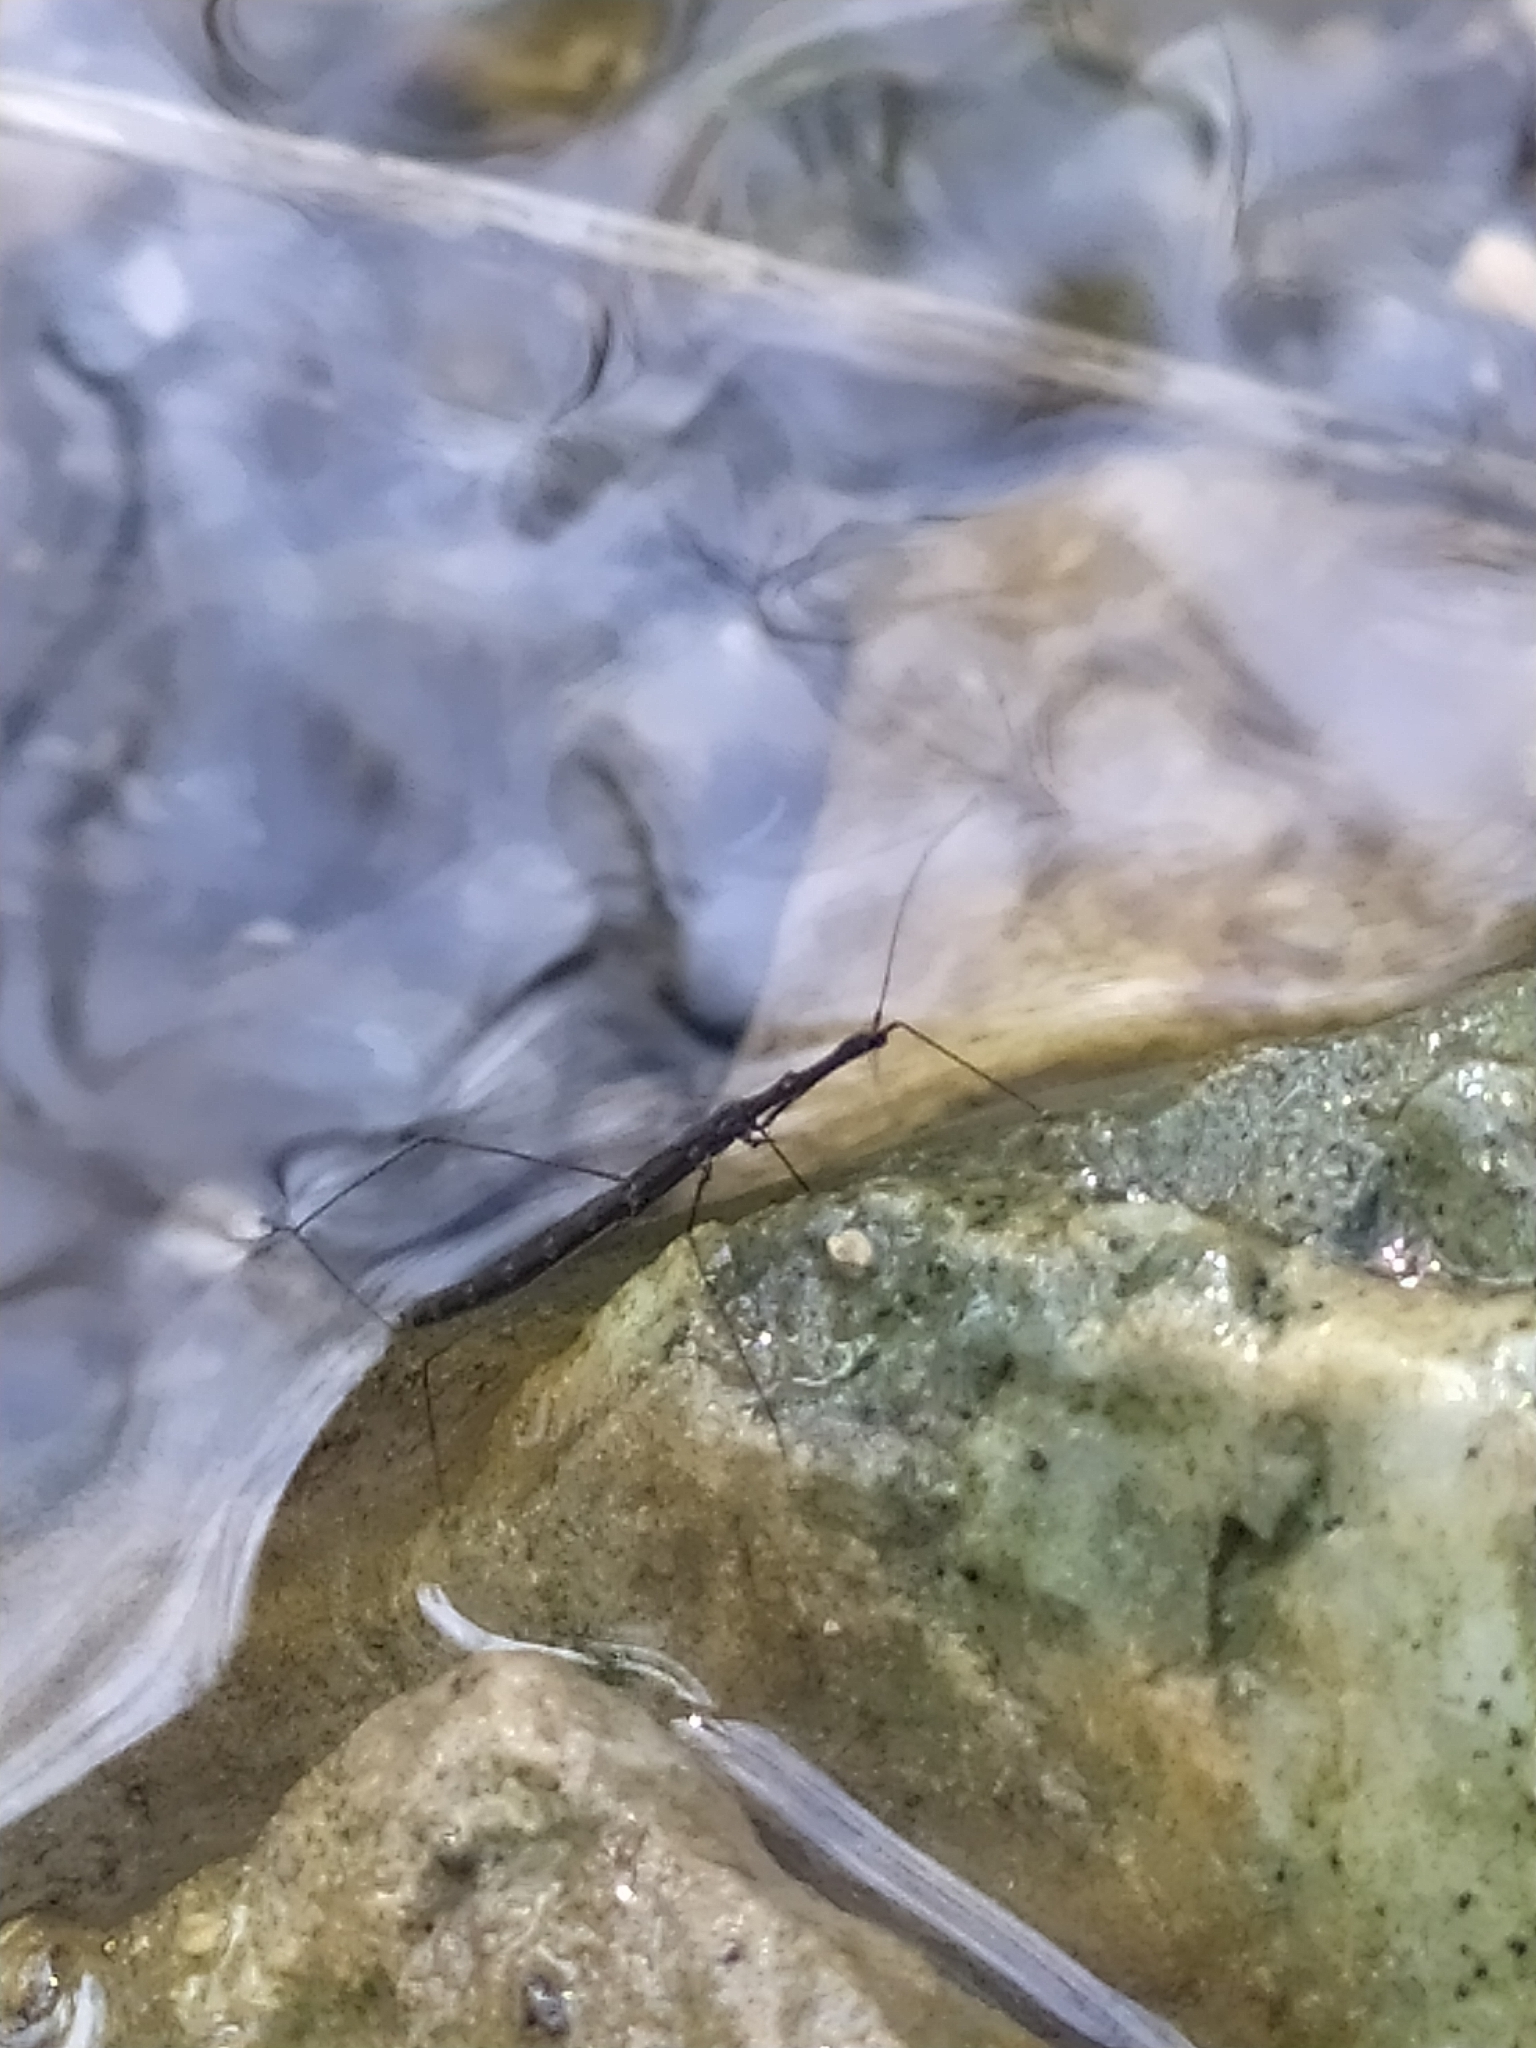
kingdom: Animalia
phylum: Arthropoda
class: Insecta
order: Hemiptera
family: Hydrometridae
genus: Hydrometra
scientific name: Hydrometra stagnorum
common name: Water measurer
